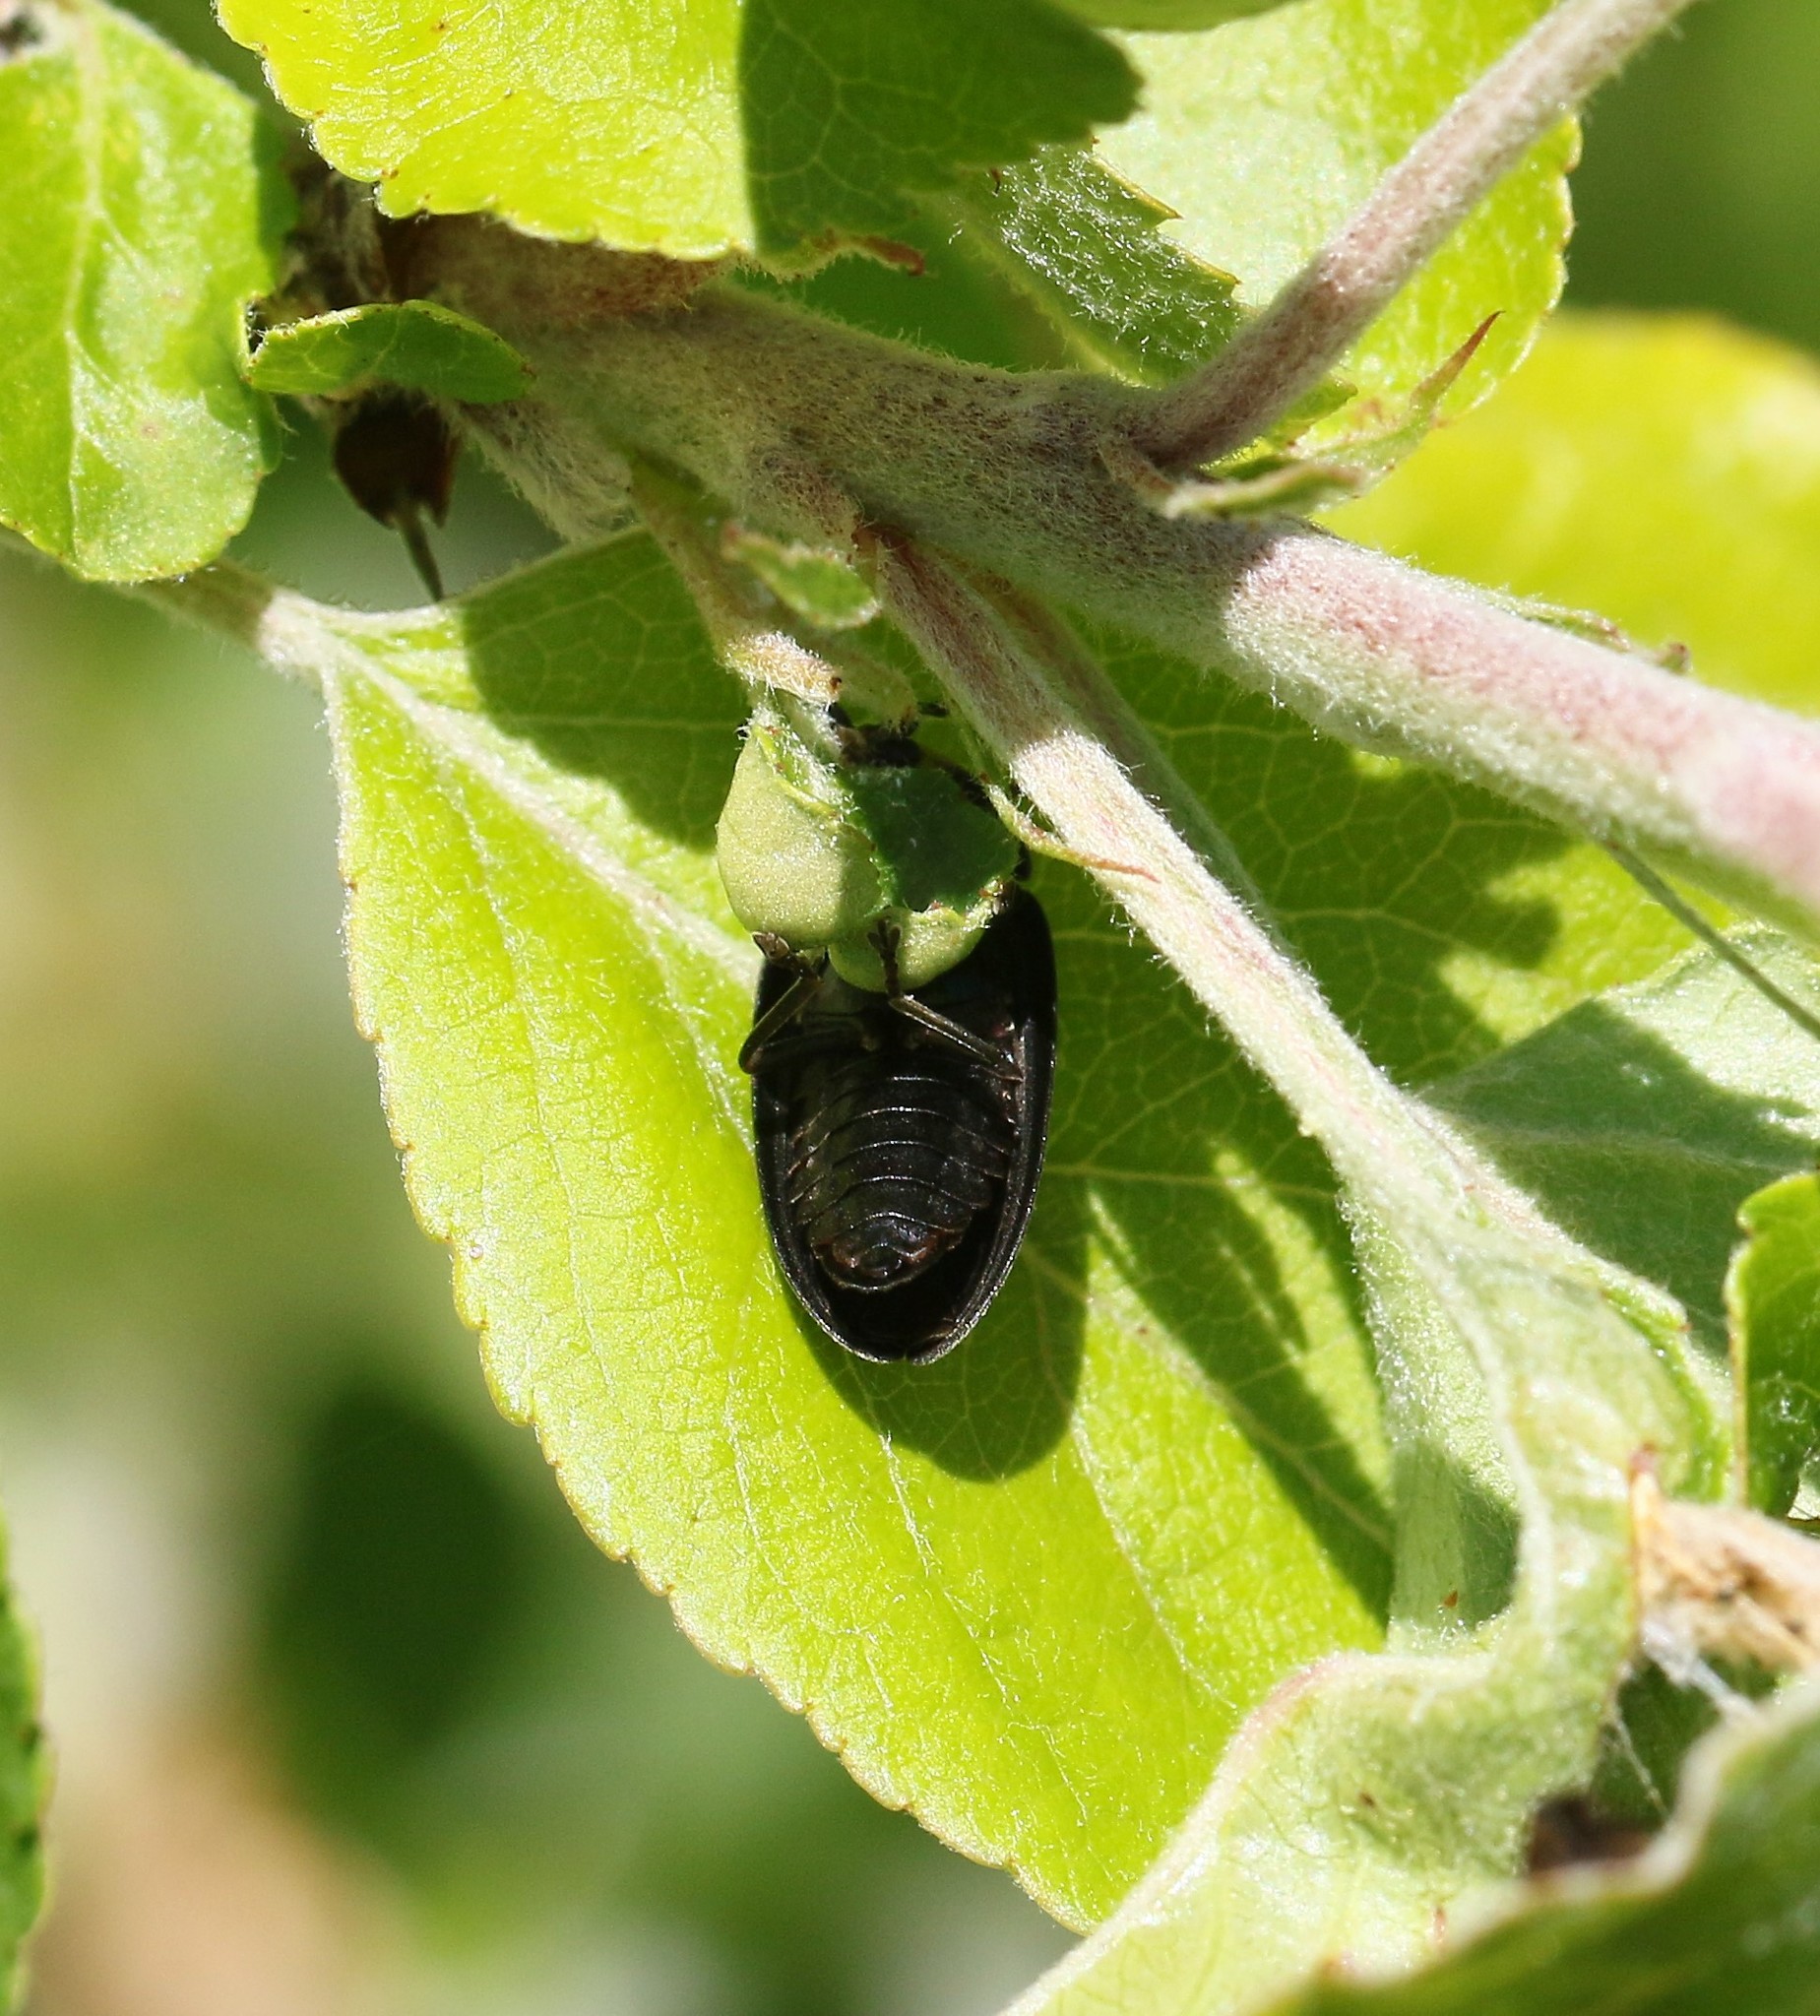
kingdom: Animalia
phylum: Arthropoda
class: Insecta
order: Coleoptera
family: Lampyridae
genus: Photinus
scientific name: Photinus corrusca
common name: Winter firefly
